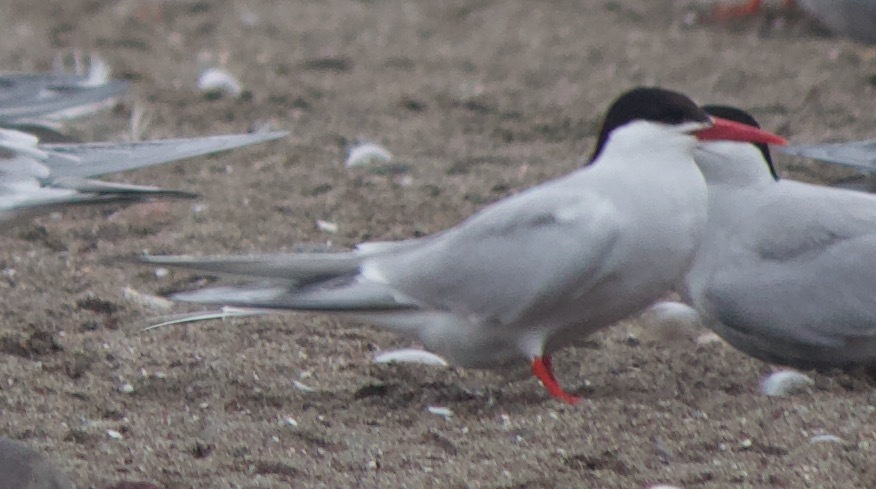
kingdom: Animalia
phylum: Chordata
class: Aves
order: Charadriiformes
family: Laridae
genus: Sterna
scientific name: Sterna hirundinacea
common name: South american tern
